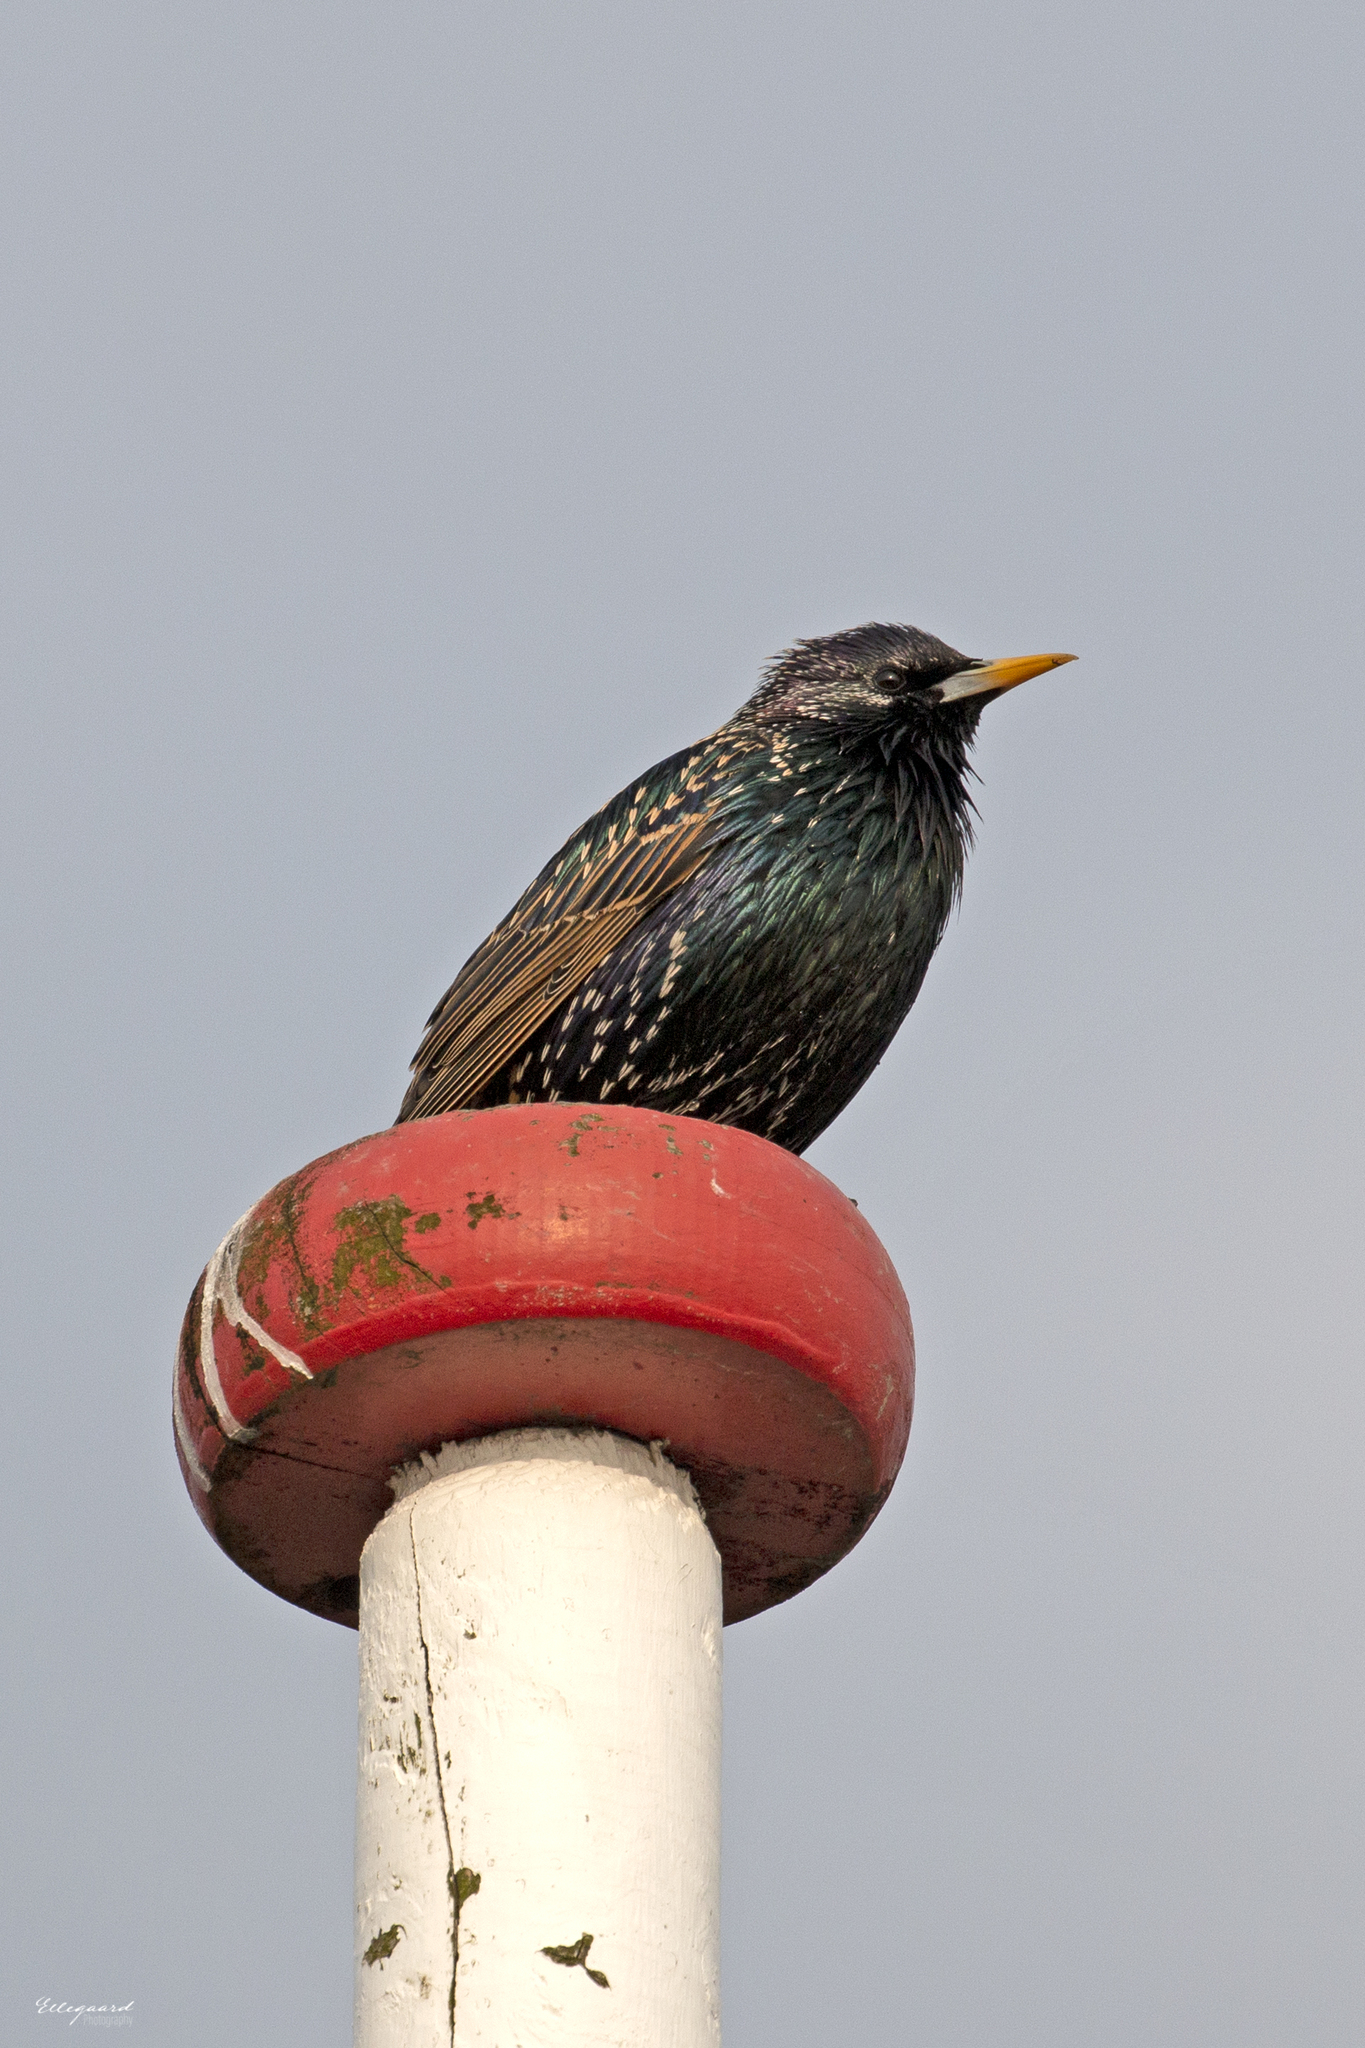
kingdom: Animalia
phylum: Chordata
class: Aves
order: Passeriformes
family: Sturnidae
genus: Sturnus
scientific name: Sturnus vulgaris
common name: Common starling
